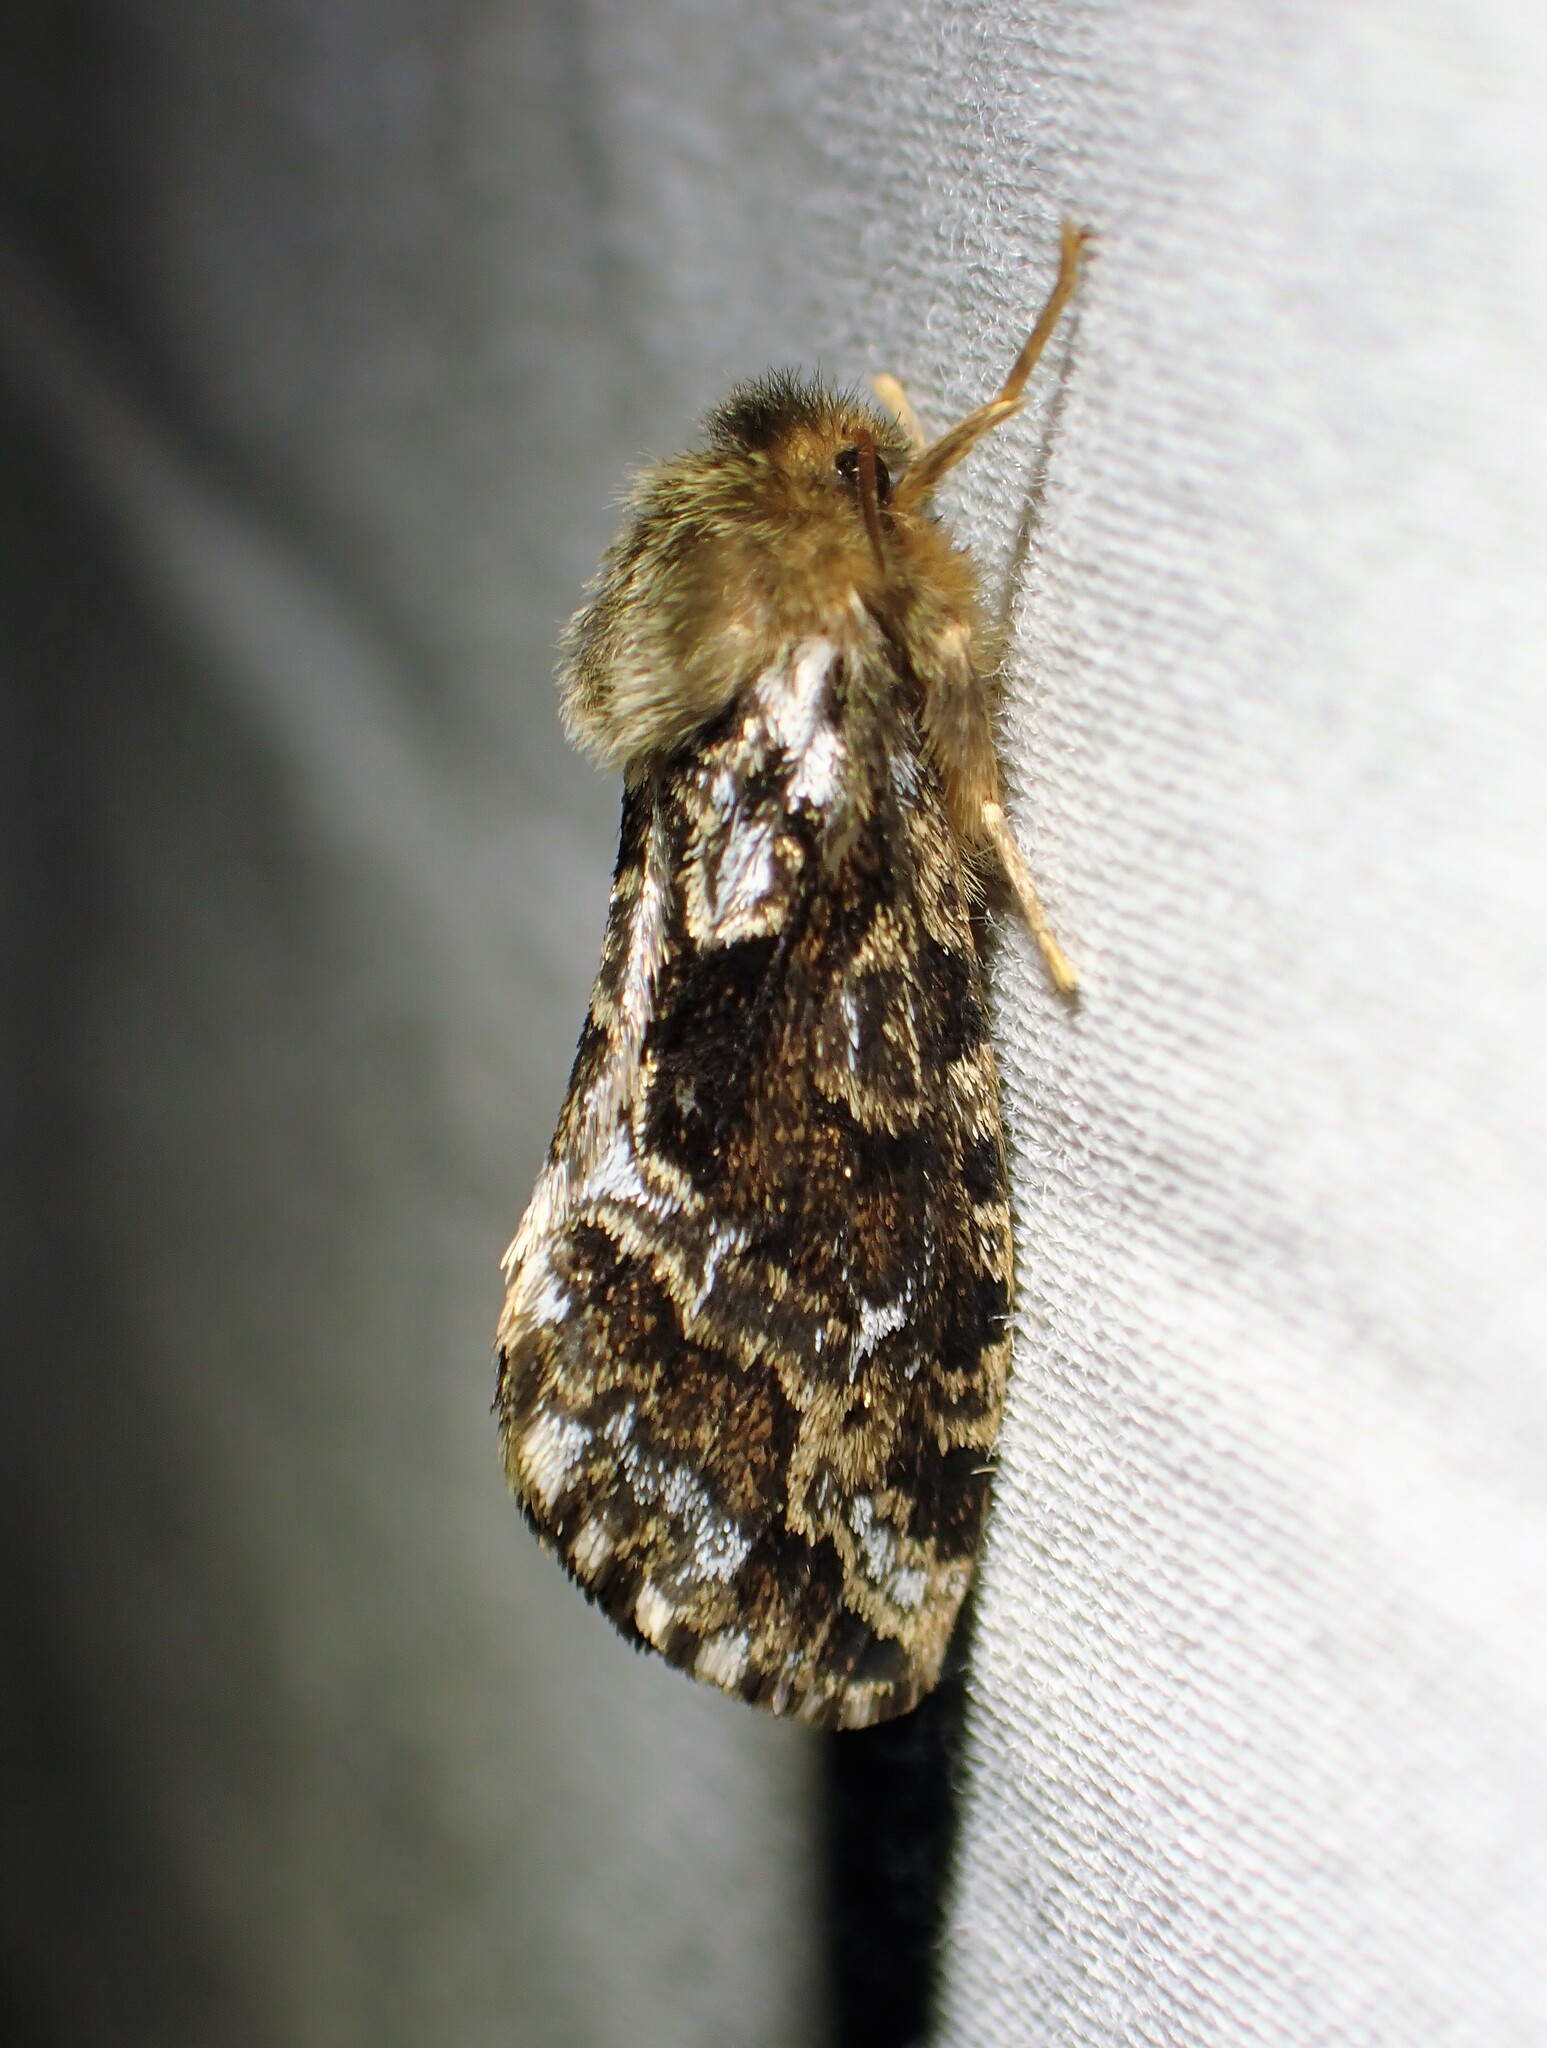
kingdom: Animalia
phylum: Arthropoda
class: Insecta
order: Lepidoptera
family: Hepialidae
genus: Korscheltellus
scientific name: Korscheltellus gracilis
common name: Conifer swift moth
